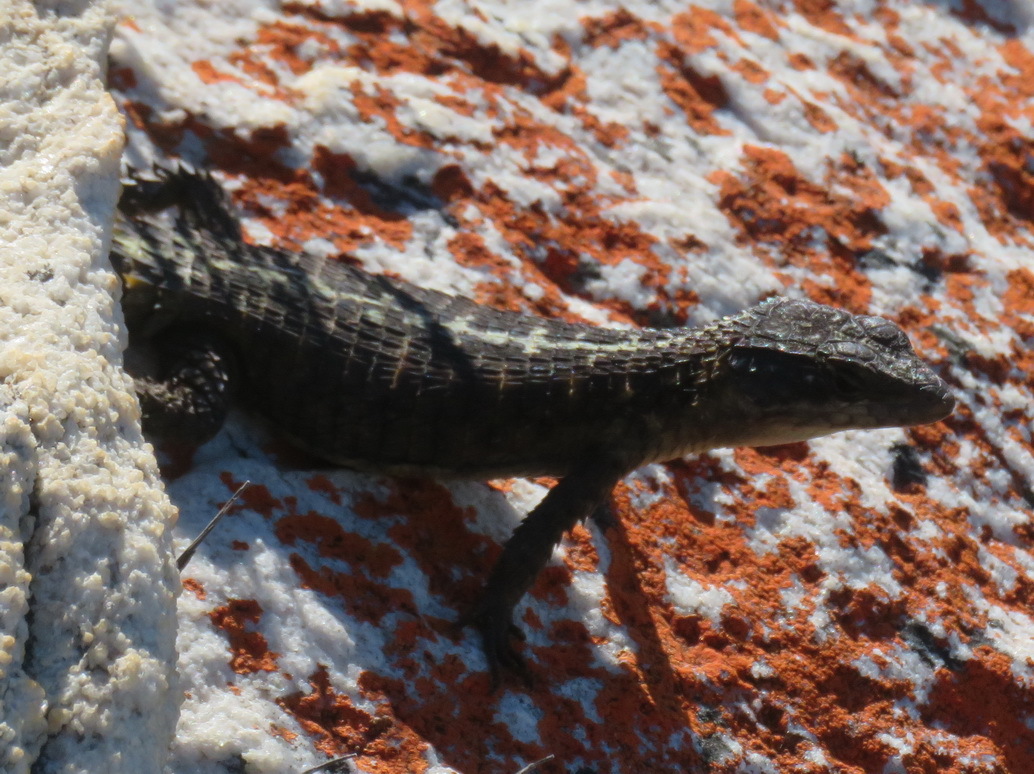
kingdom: Animalia
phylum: Chordata
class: Squamata
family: Cordylidae
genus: Cordylus
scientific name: Cordylus cordylus
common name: Cape girdled lizard
